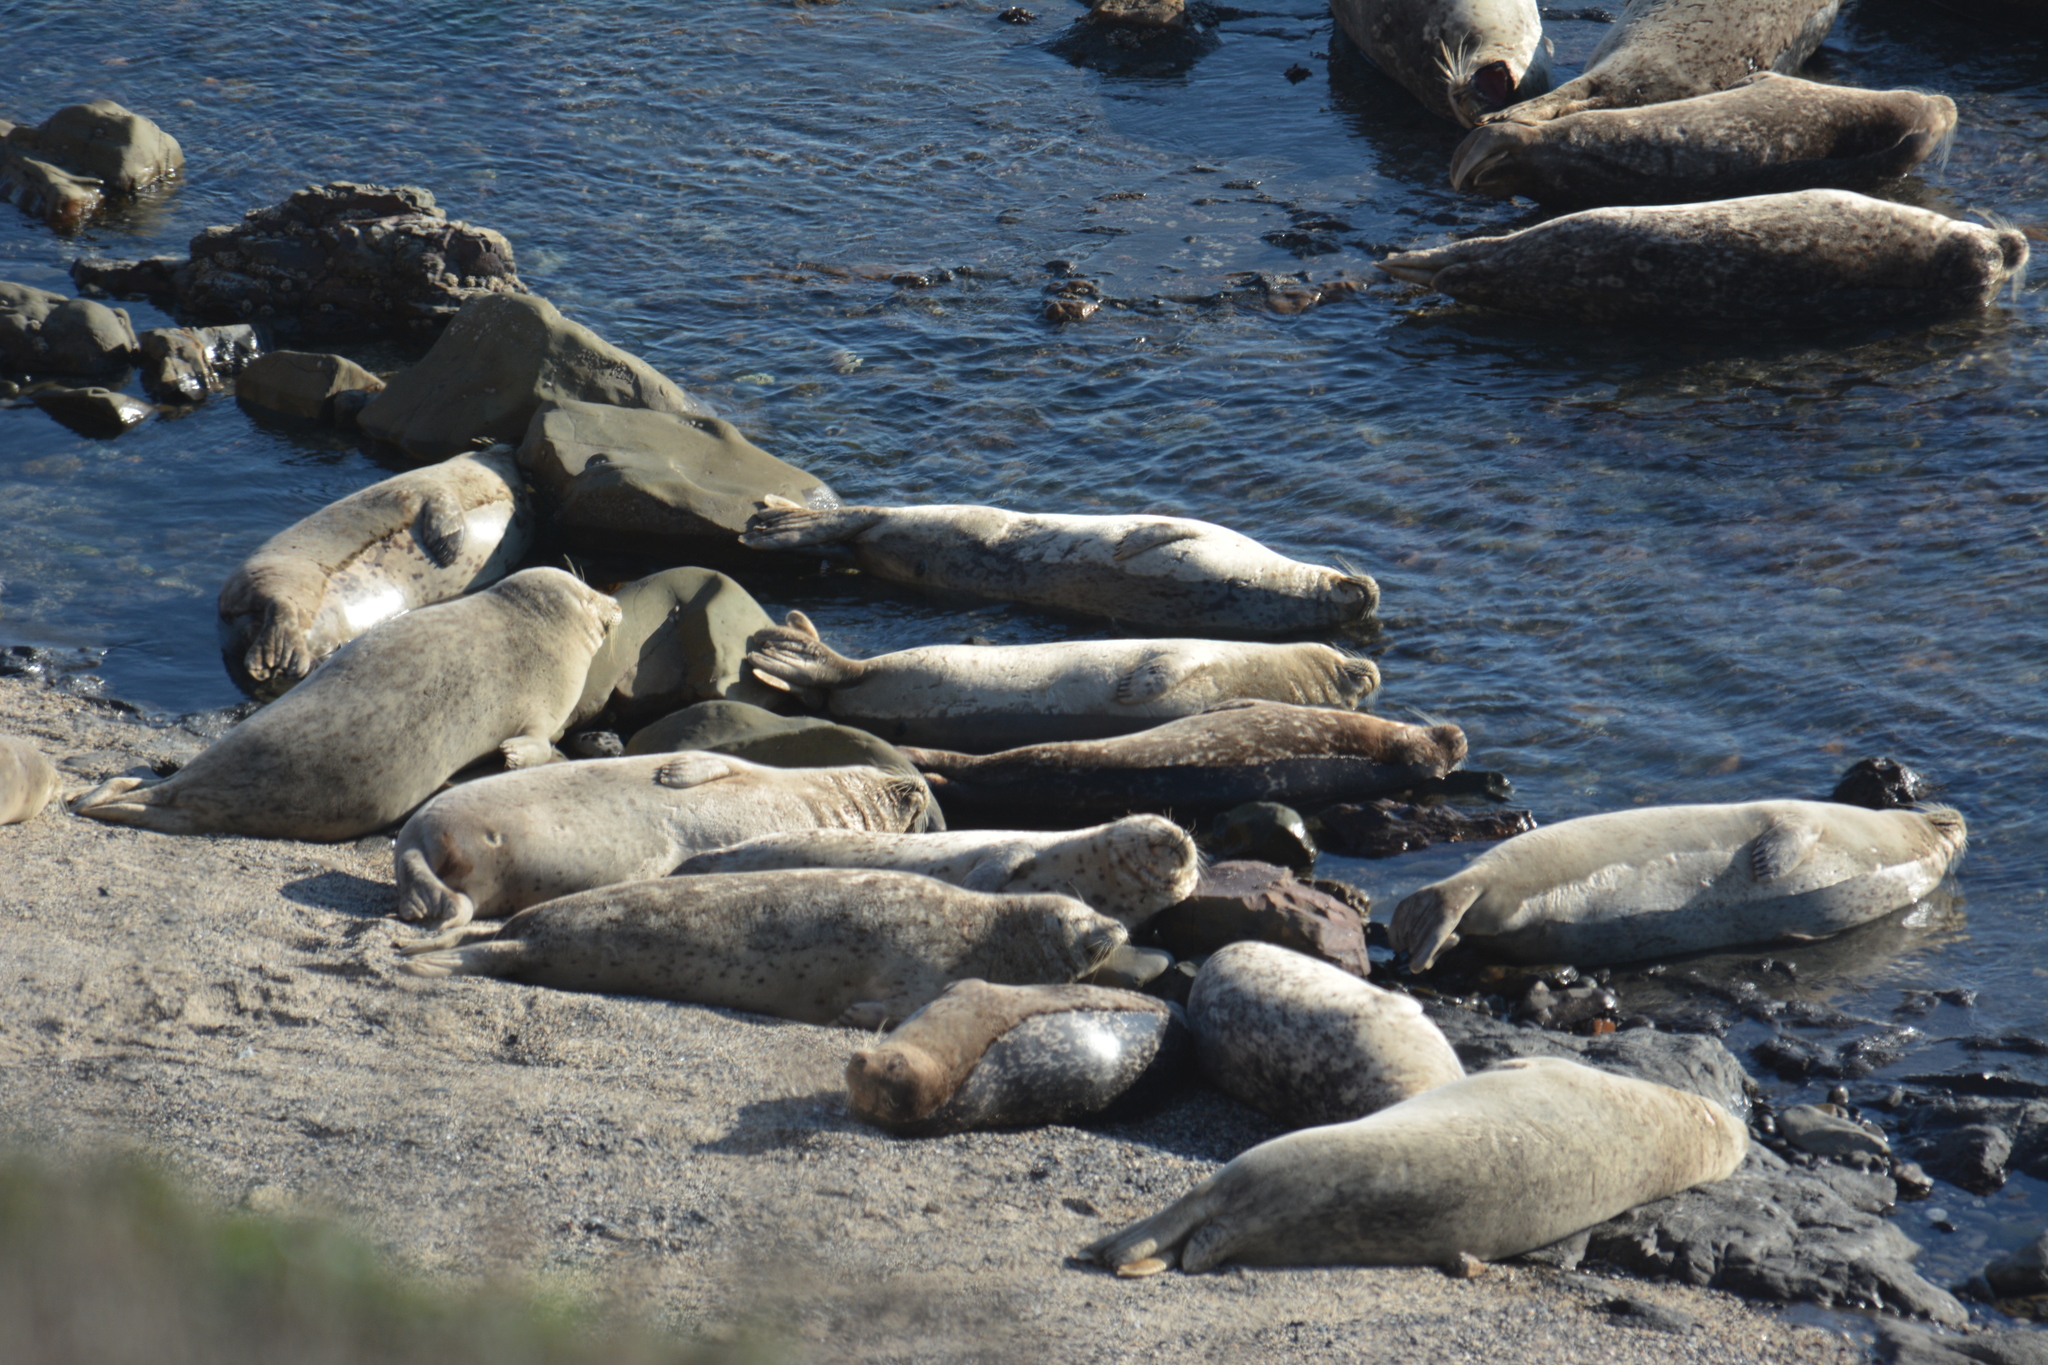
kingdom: Animalia
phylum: Chordata
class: Mammalia
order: Carnivora
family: Phocidae
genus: Phoca
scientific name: Phoca vitulina
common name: Harbor seal
